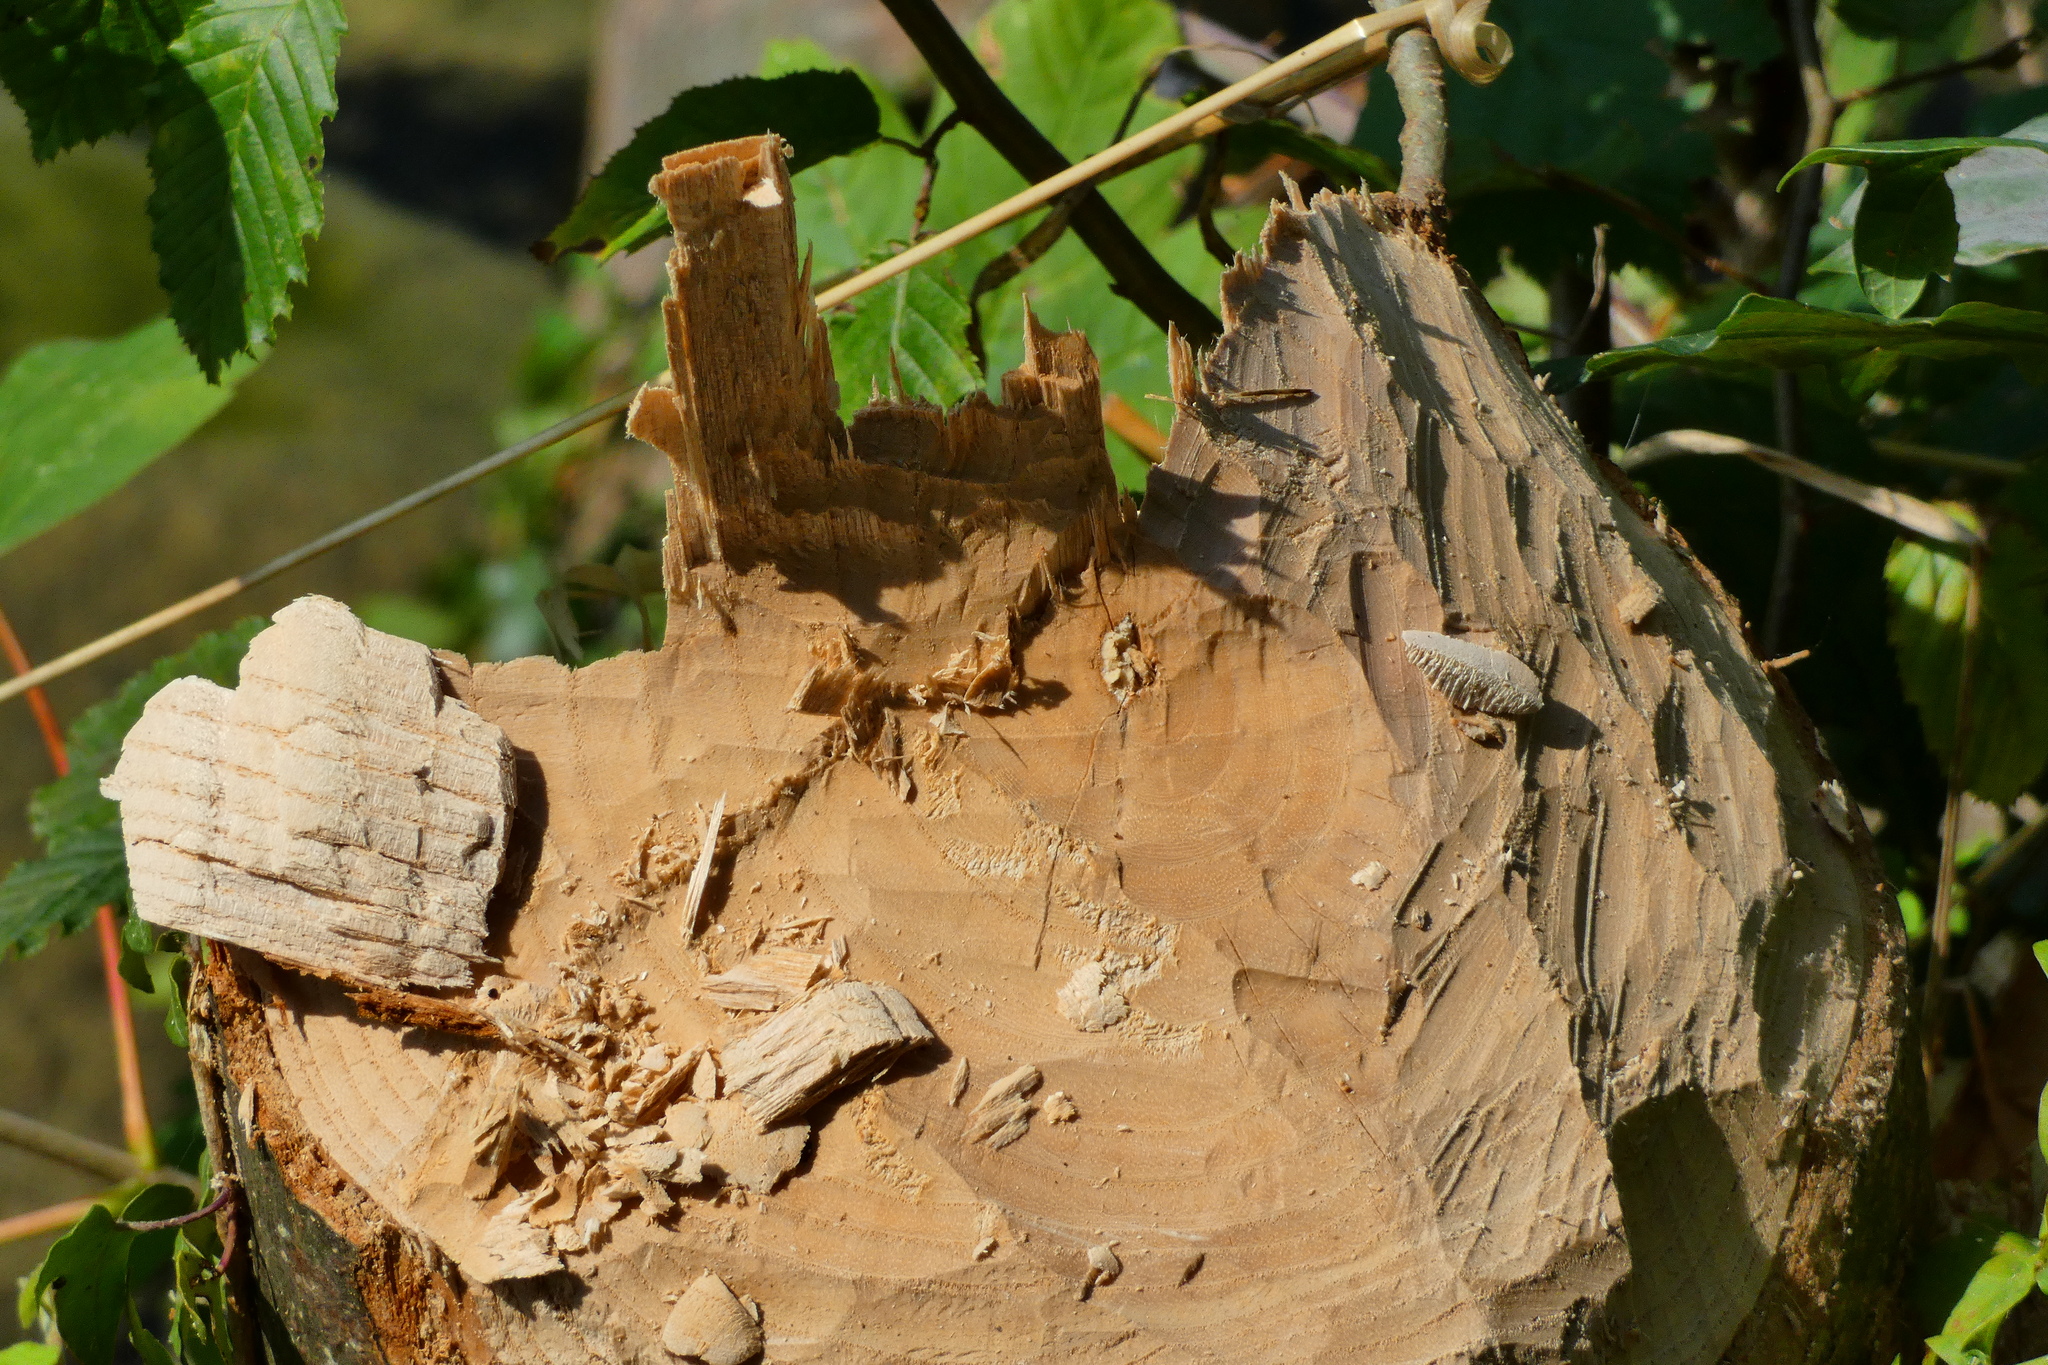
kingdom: Animalia
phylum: Chordata
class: Mammalia
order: Rodentia
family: Castoridae
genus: Castor
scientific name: Castor fiber
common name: Eurasian beaver
